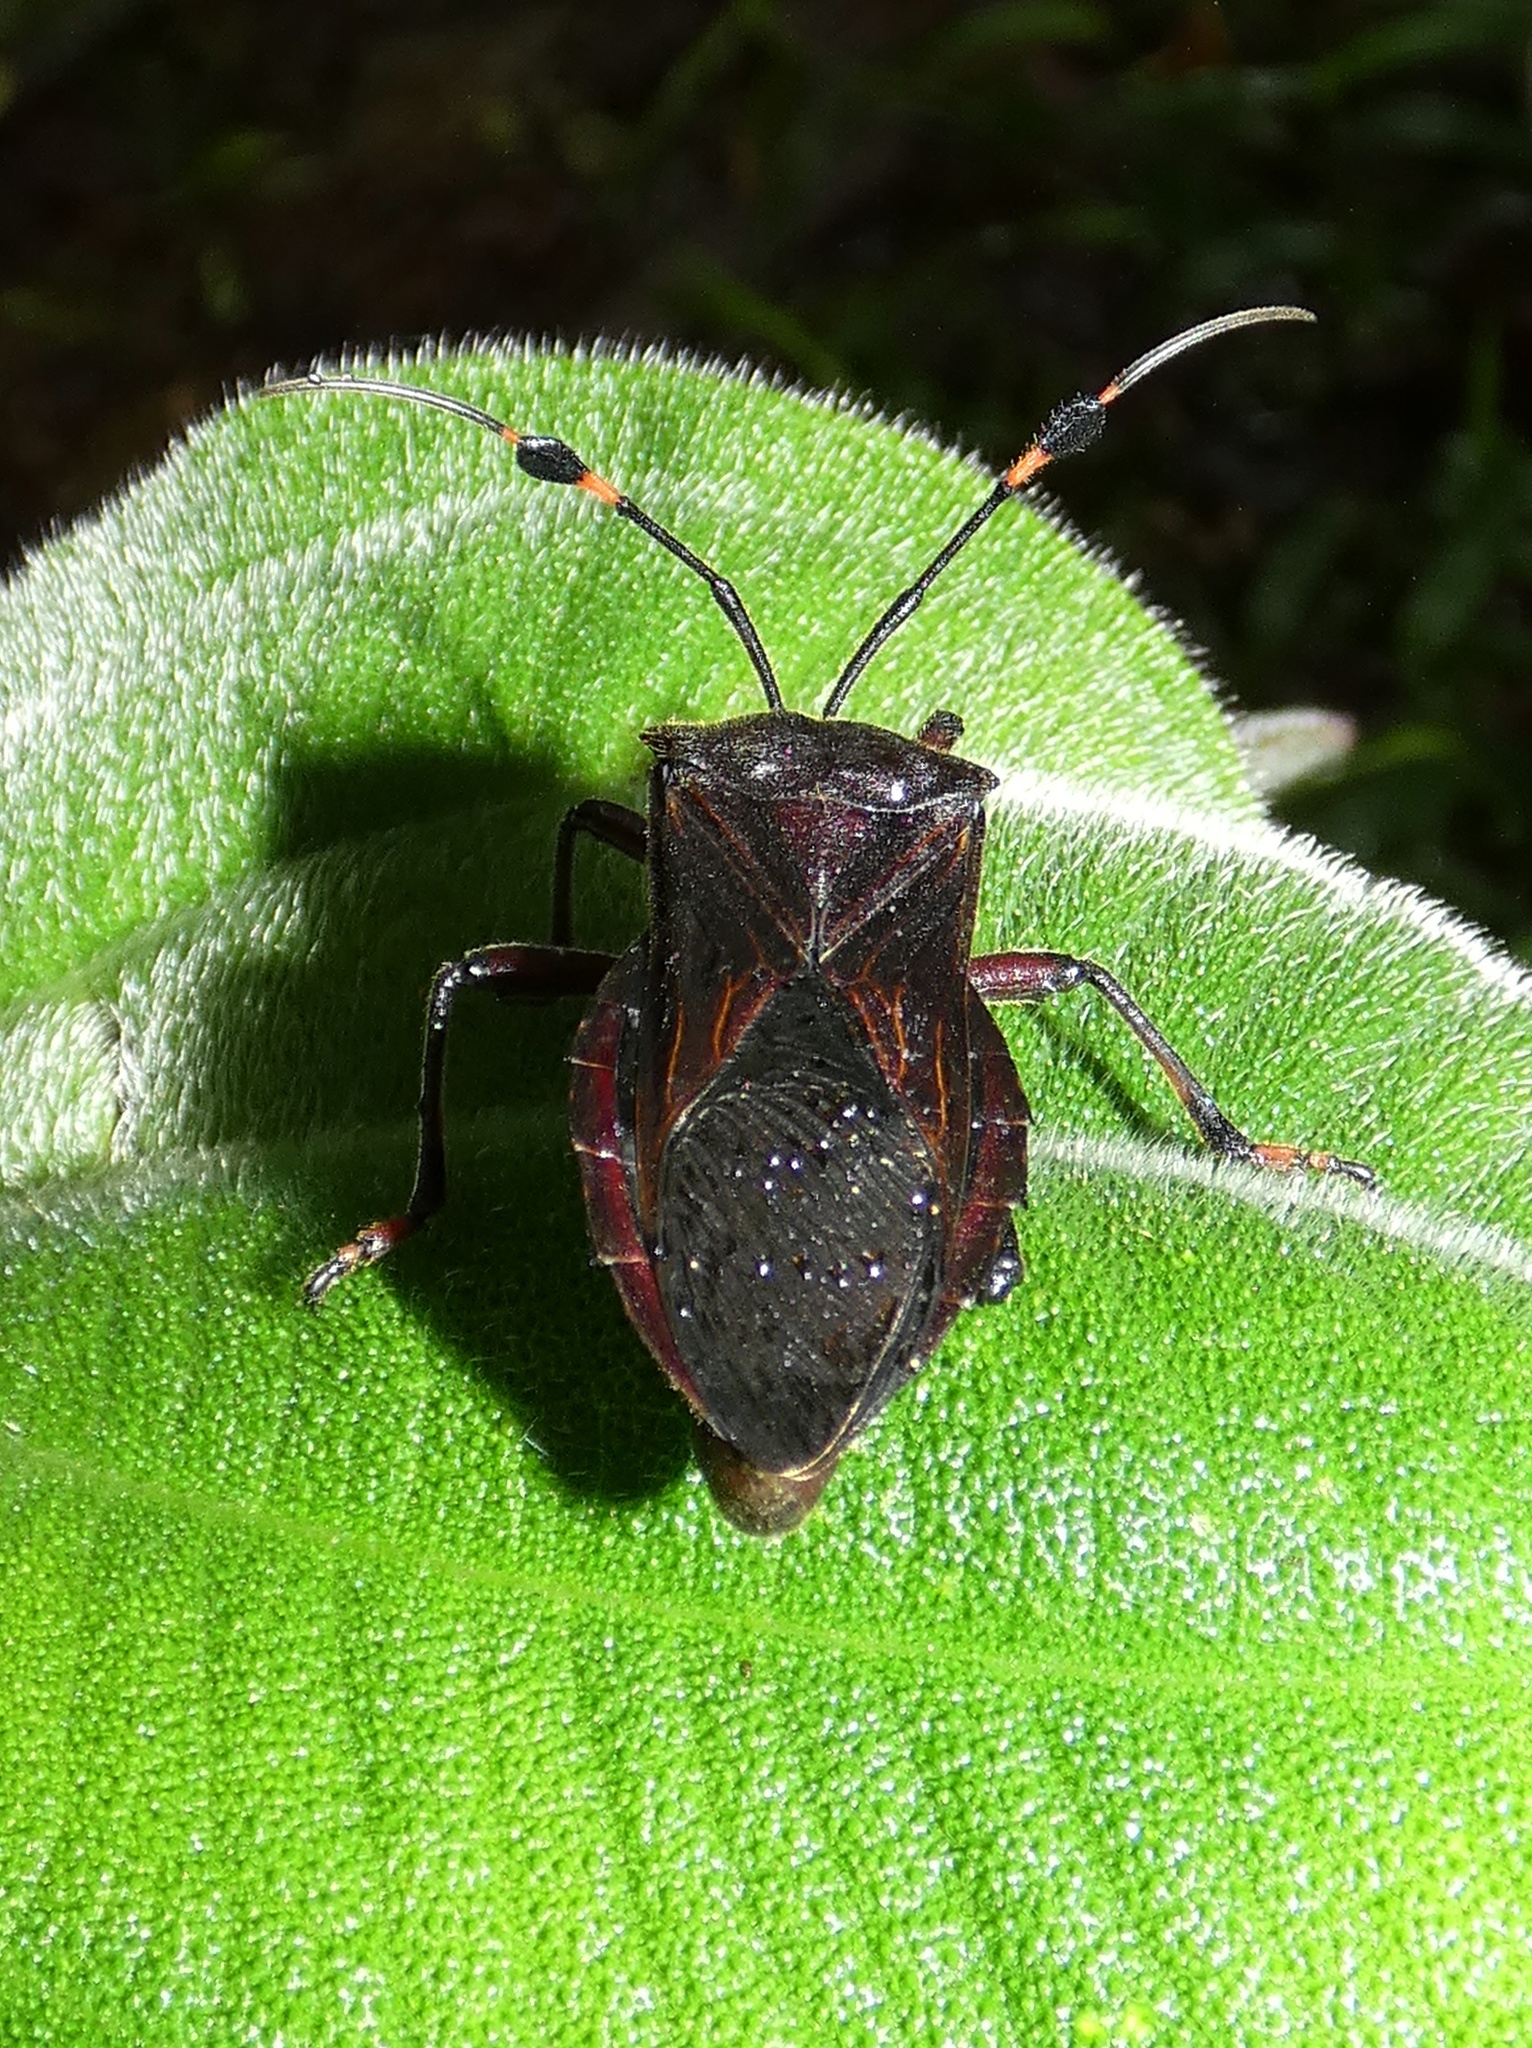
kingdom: Animalia
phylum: Arthropoda
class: Insecta
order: Hemiptera
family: Coreidae
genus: Pachylis
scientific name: Pachylis nervosus
